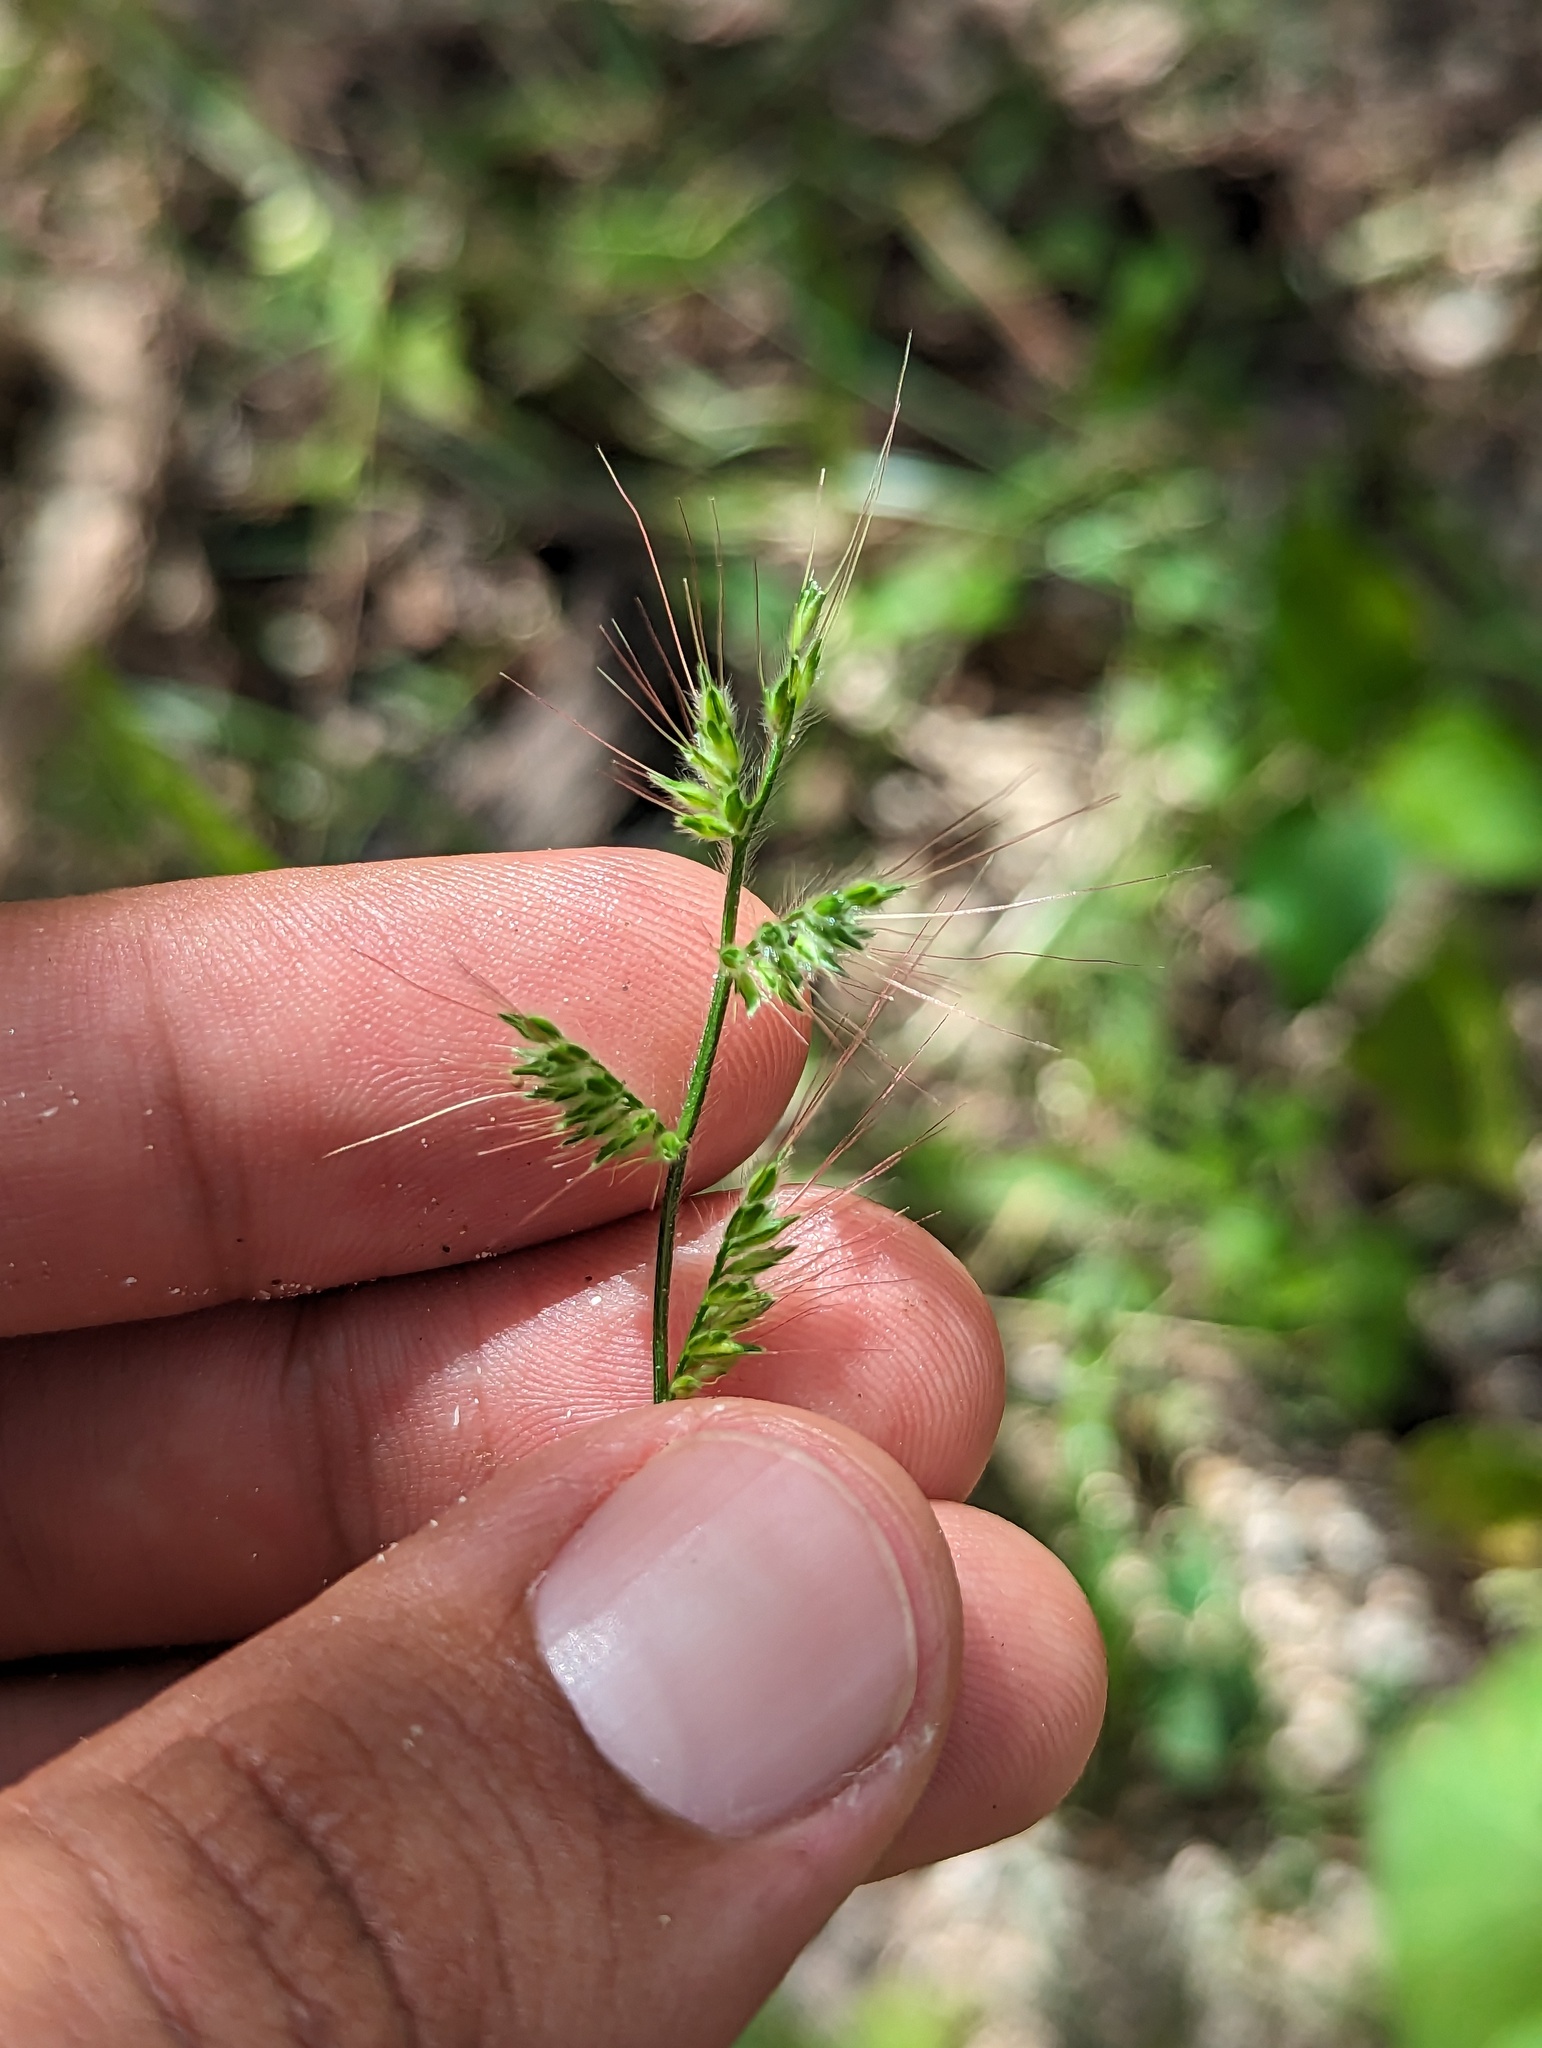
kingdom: Plantae
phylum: Tracheophyta
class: Liliopsida
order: Poales
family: Poaceae
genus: Oplismenus
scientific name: Oplismenus burmanni
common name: Burmann's basketgrass
